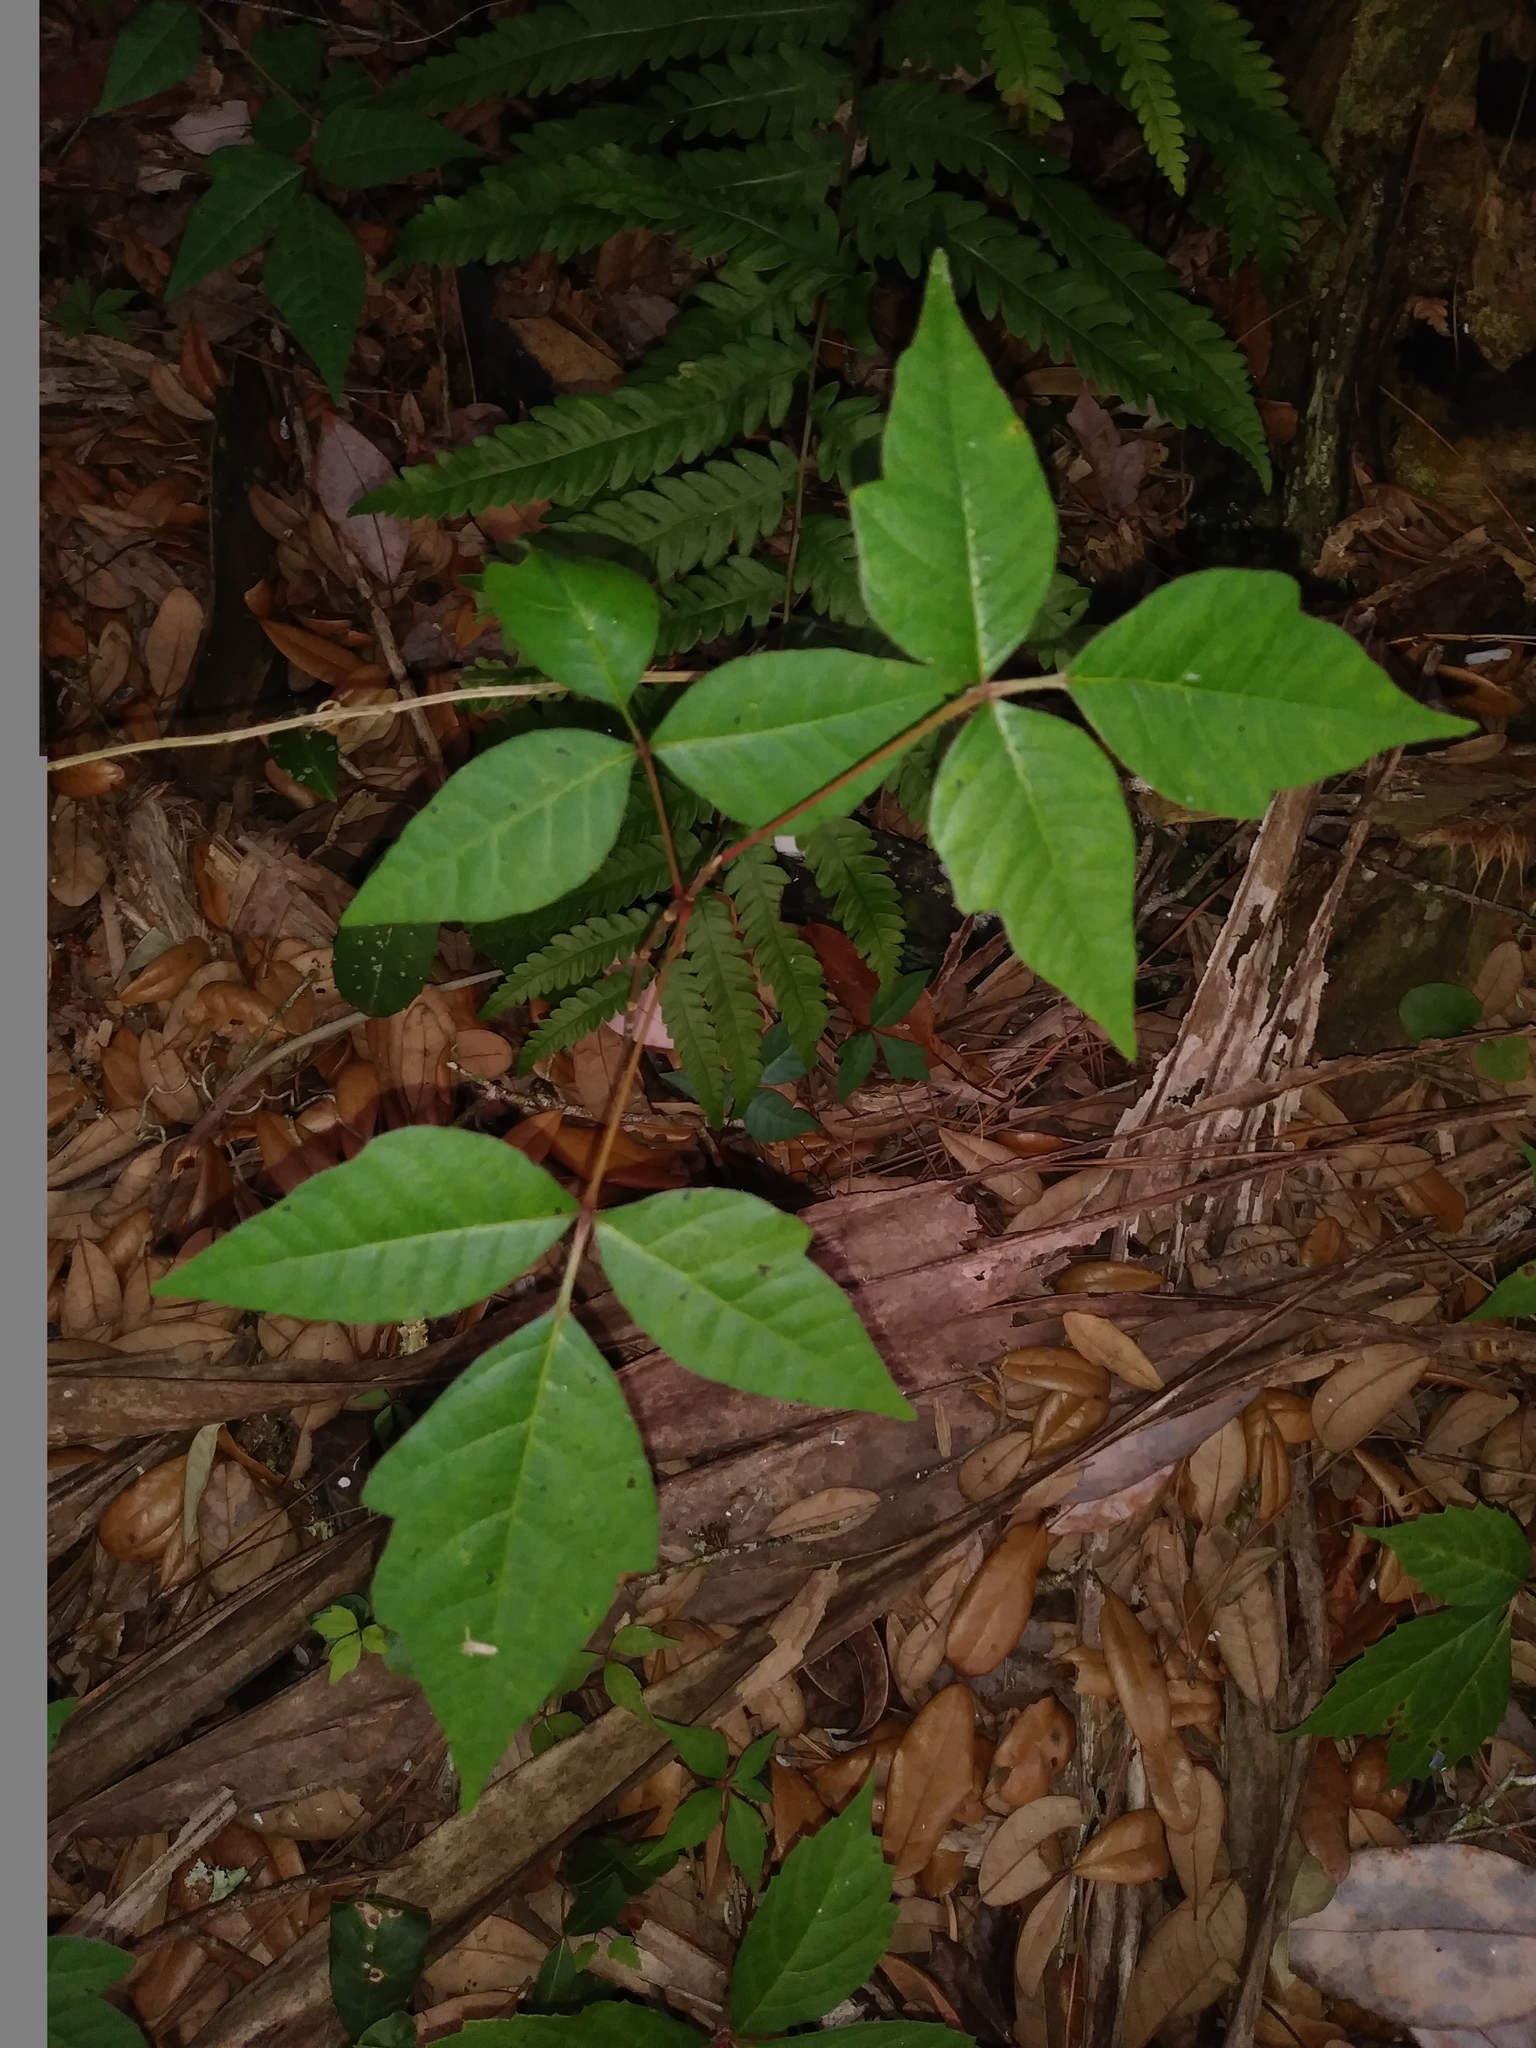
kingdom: Plantae
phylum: Tracheophyta
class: Magnoliopsida
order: Sapindales
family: Anacardiaceae
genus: Toxicodendron
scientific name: Toxicodendron radicans
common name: Poison ivy
